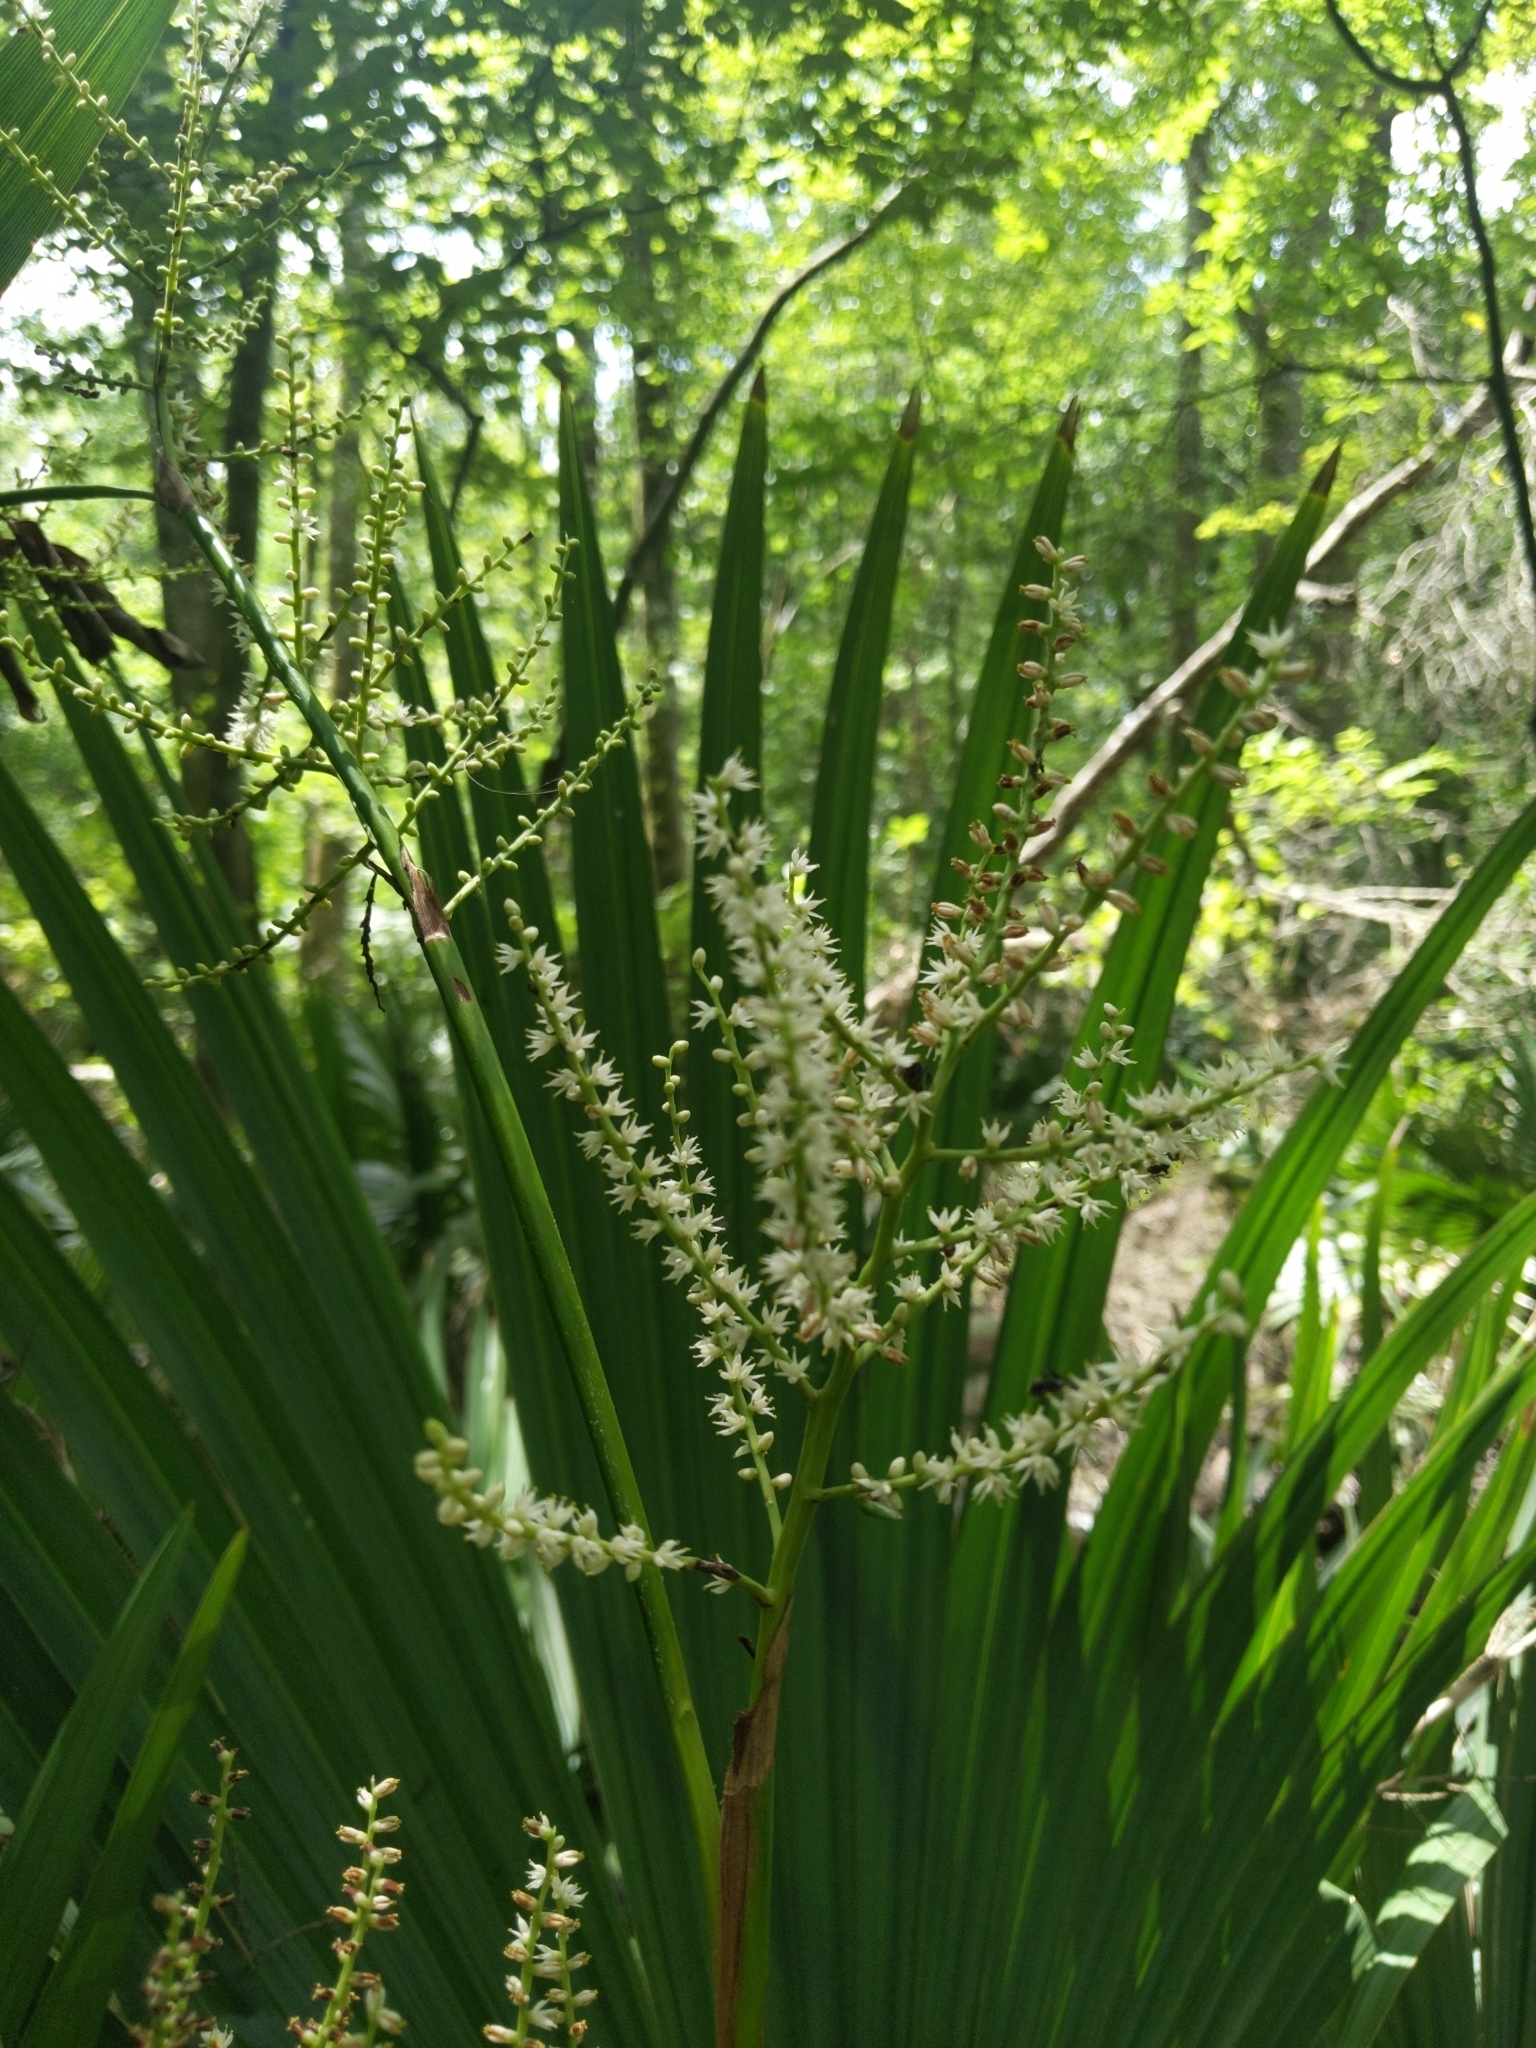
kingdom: Plantae
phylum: Tracheophyta
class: Liliopsida
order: Arecales
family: Arecaceae
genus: Sabal
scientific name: Sabal minor
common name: Dwarf palmetto
